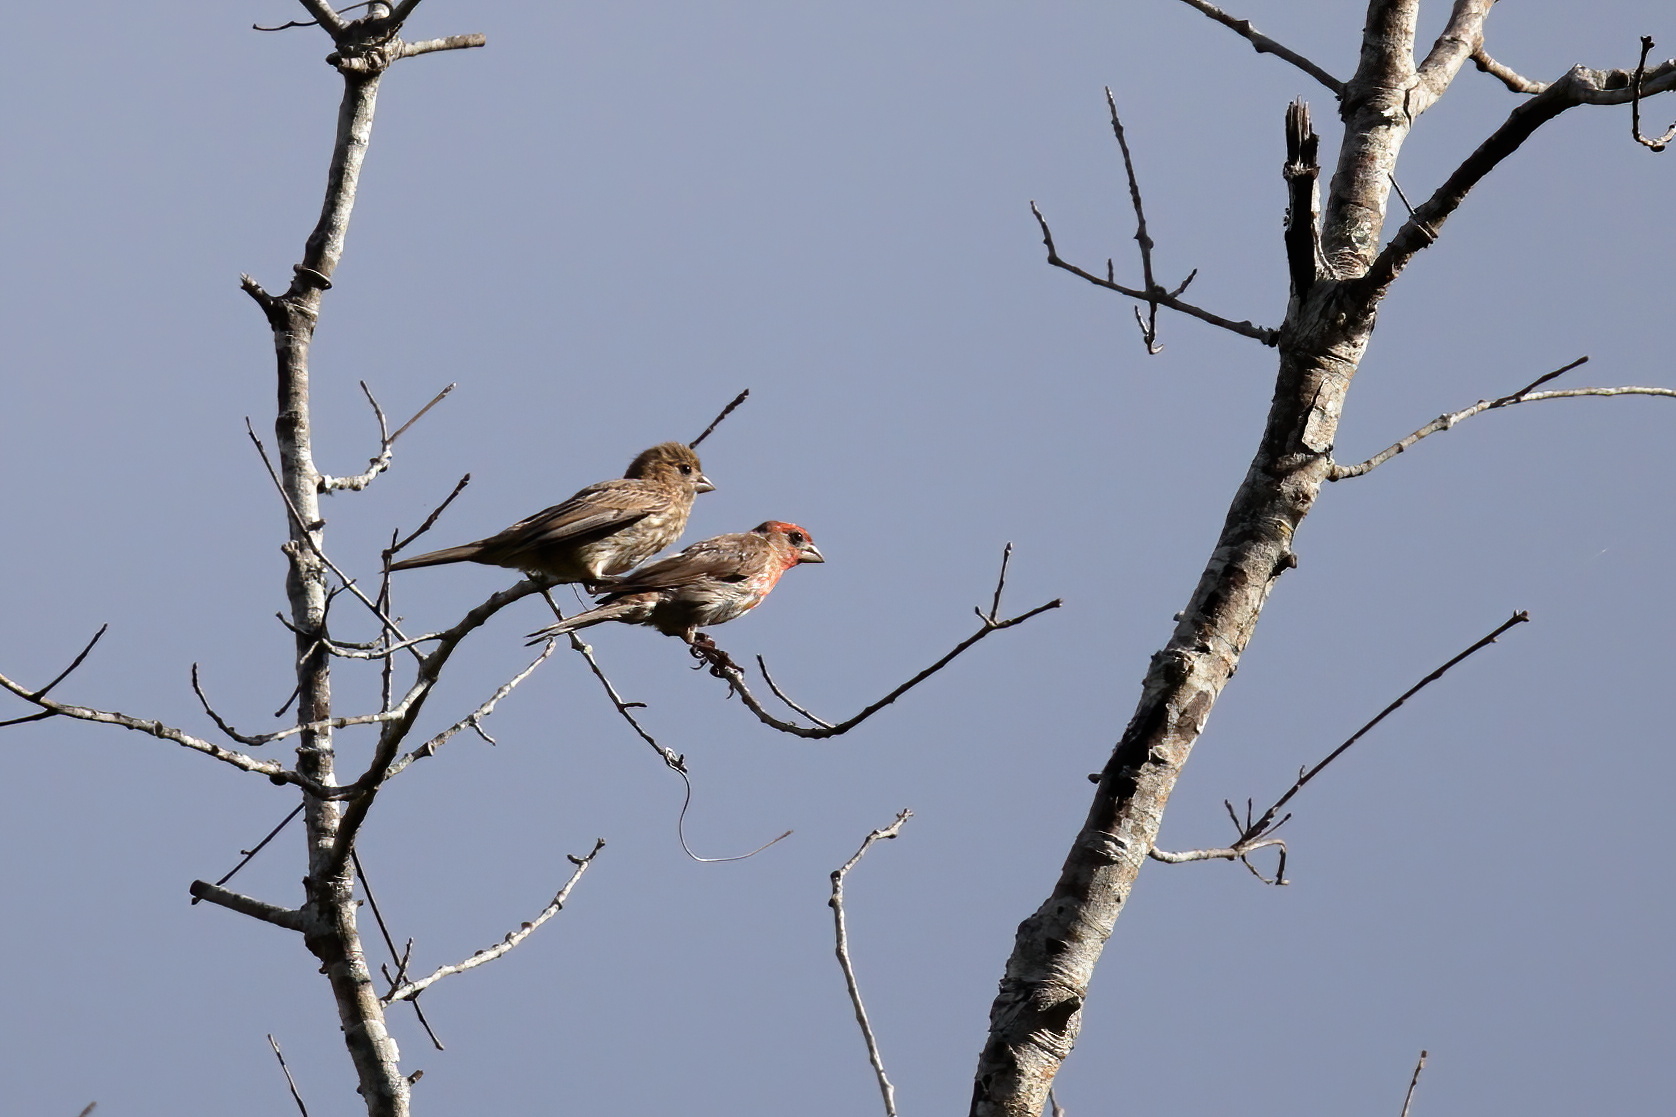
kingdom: Animalia
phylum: Chordata
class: Aves
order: Passeriformes
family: Fringillidae
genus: Haemorhous
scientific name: Haemorhous mexicanus
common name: House finch
